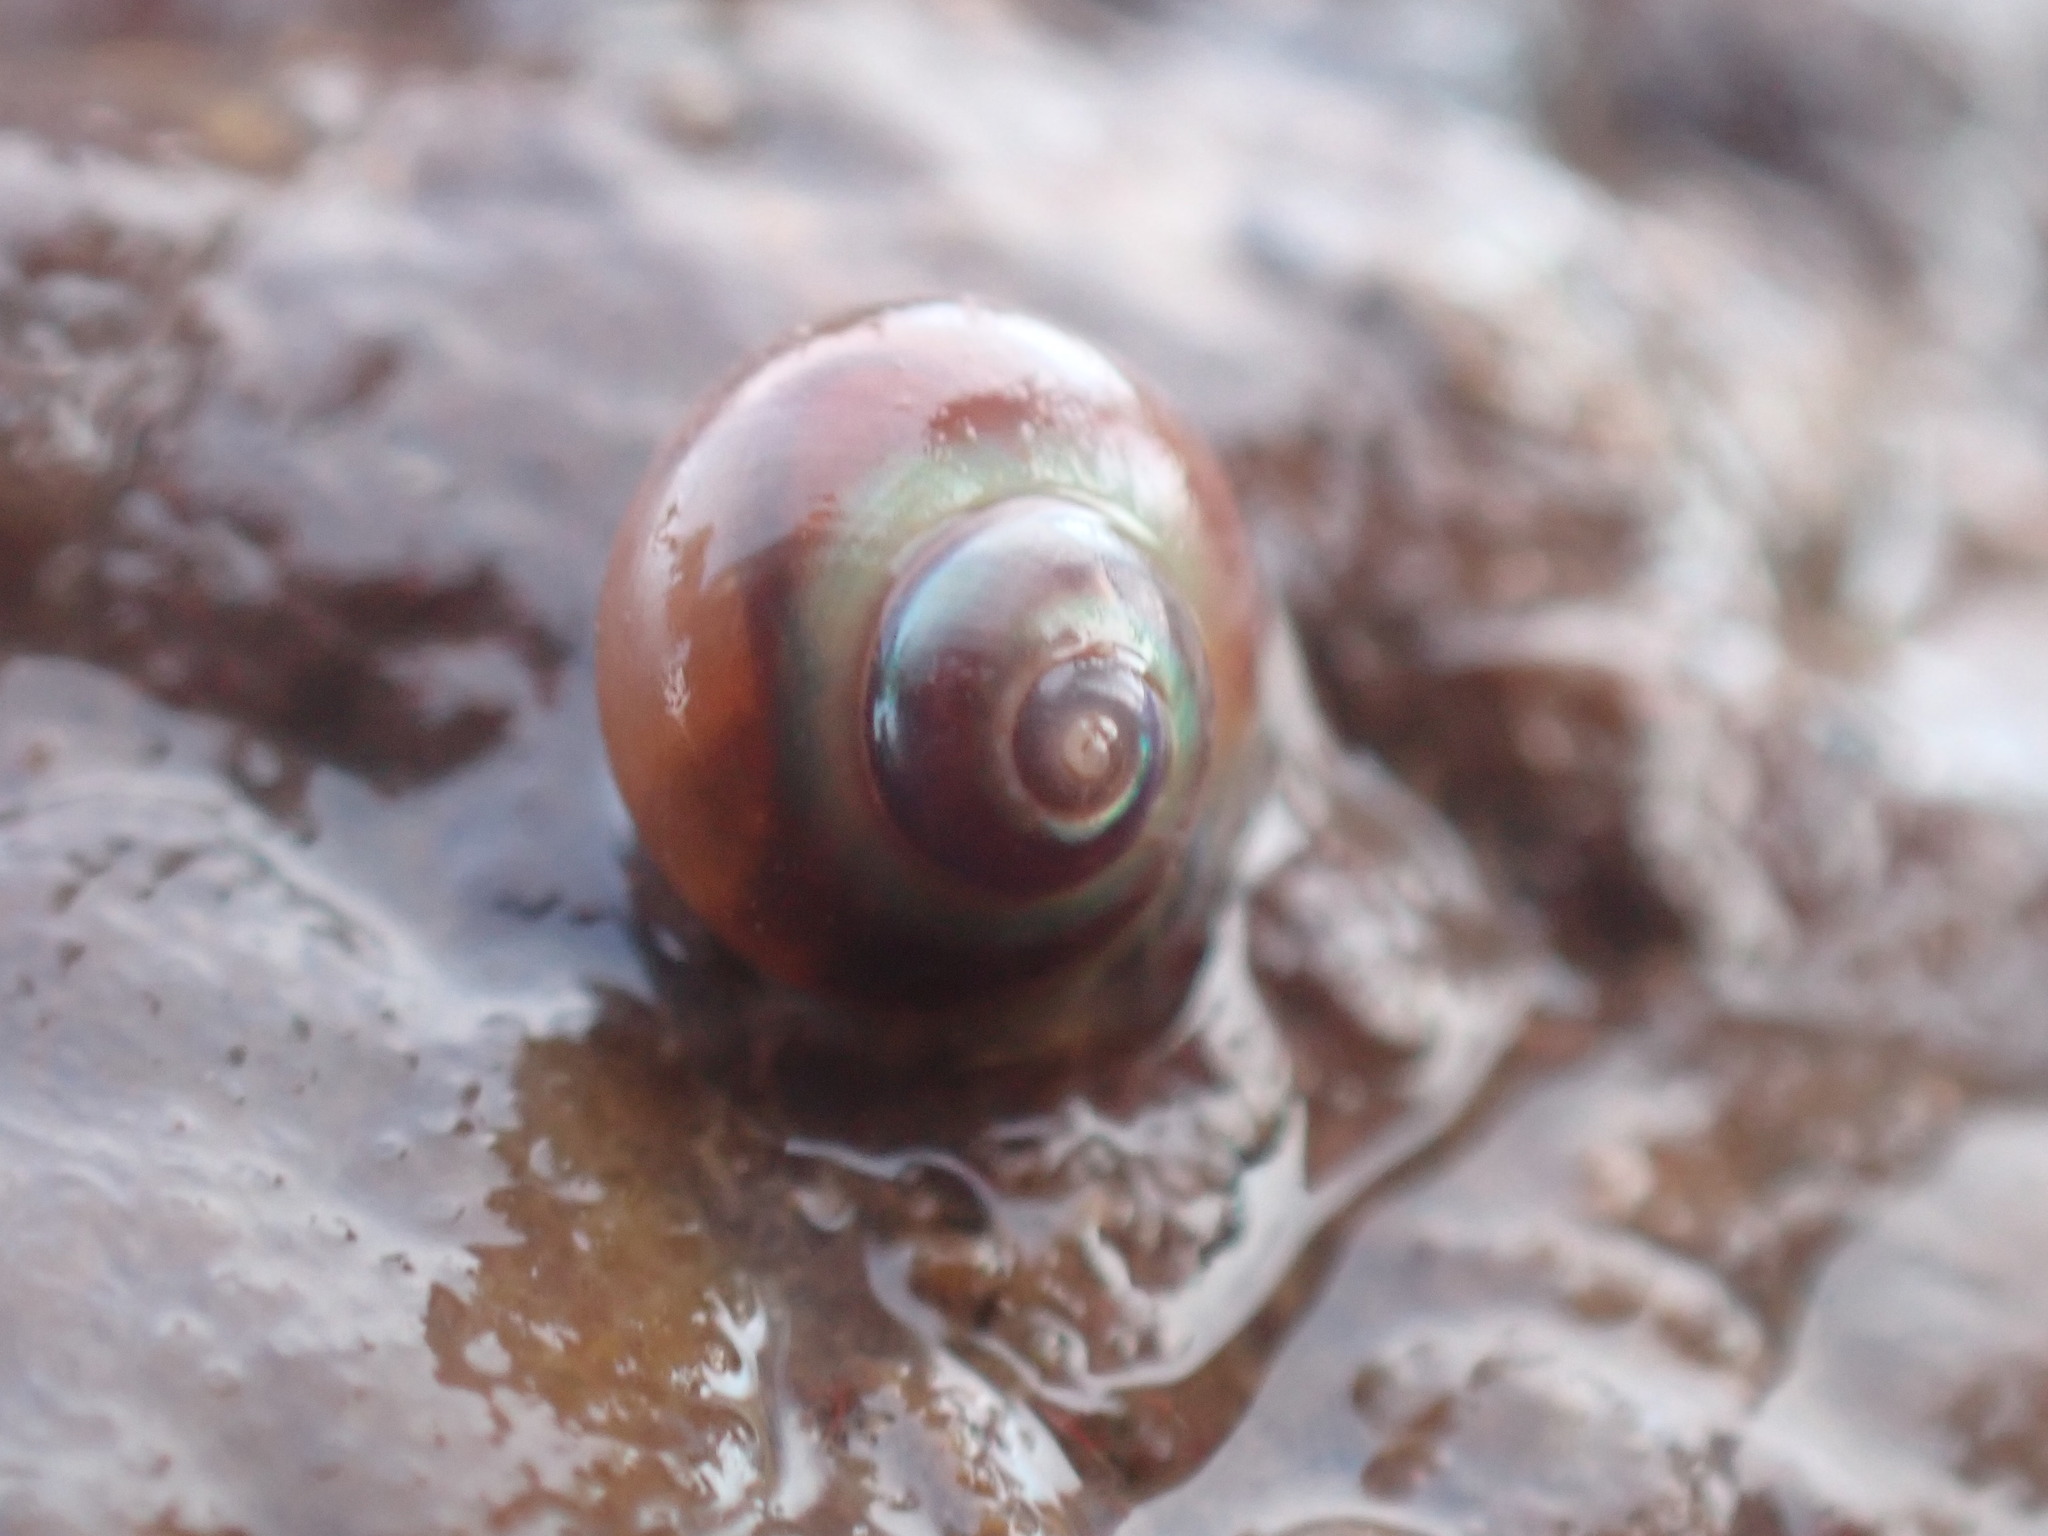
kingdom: Animalia
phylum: Mollusca
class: Gastropoda
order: Trochida
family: Margaritidae
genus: Margarites
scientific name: Margarites helicinus
